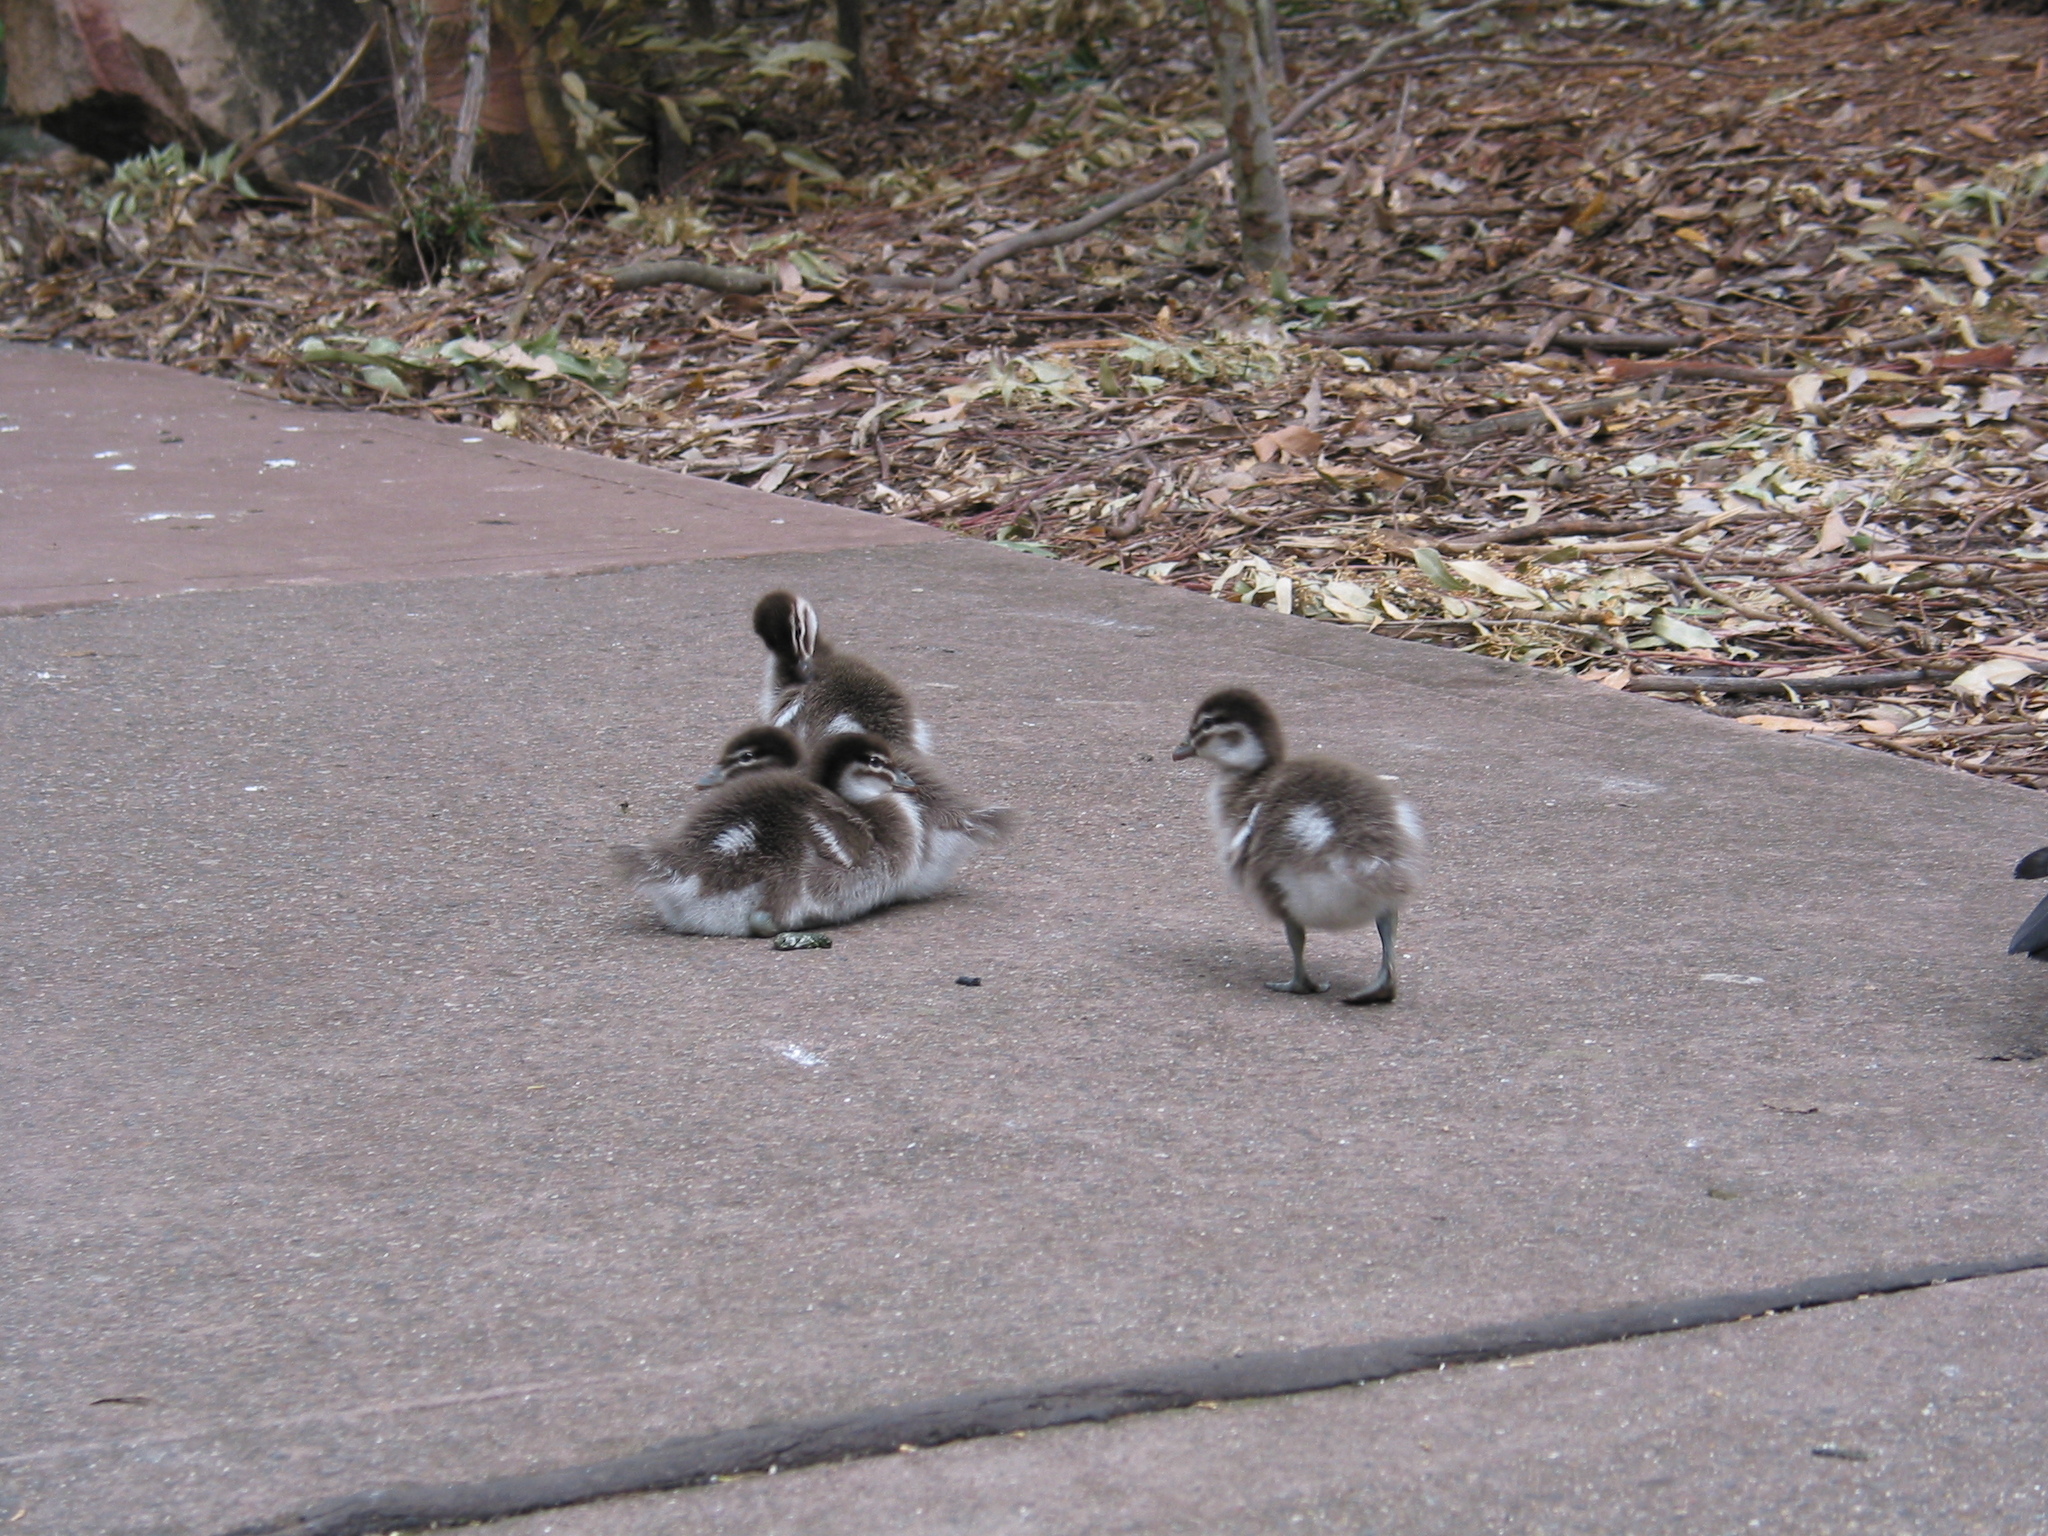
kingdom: Animalia
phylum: Chordata
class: Aves
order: Anseriformes
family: Anatidae
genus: Chenonetta
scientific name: Chenonetta jubata
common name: Maned duck
